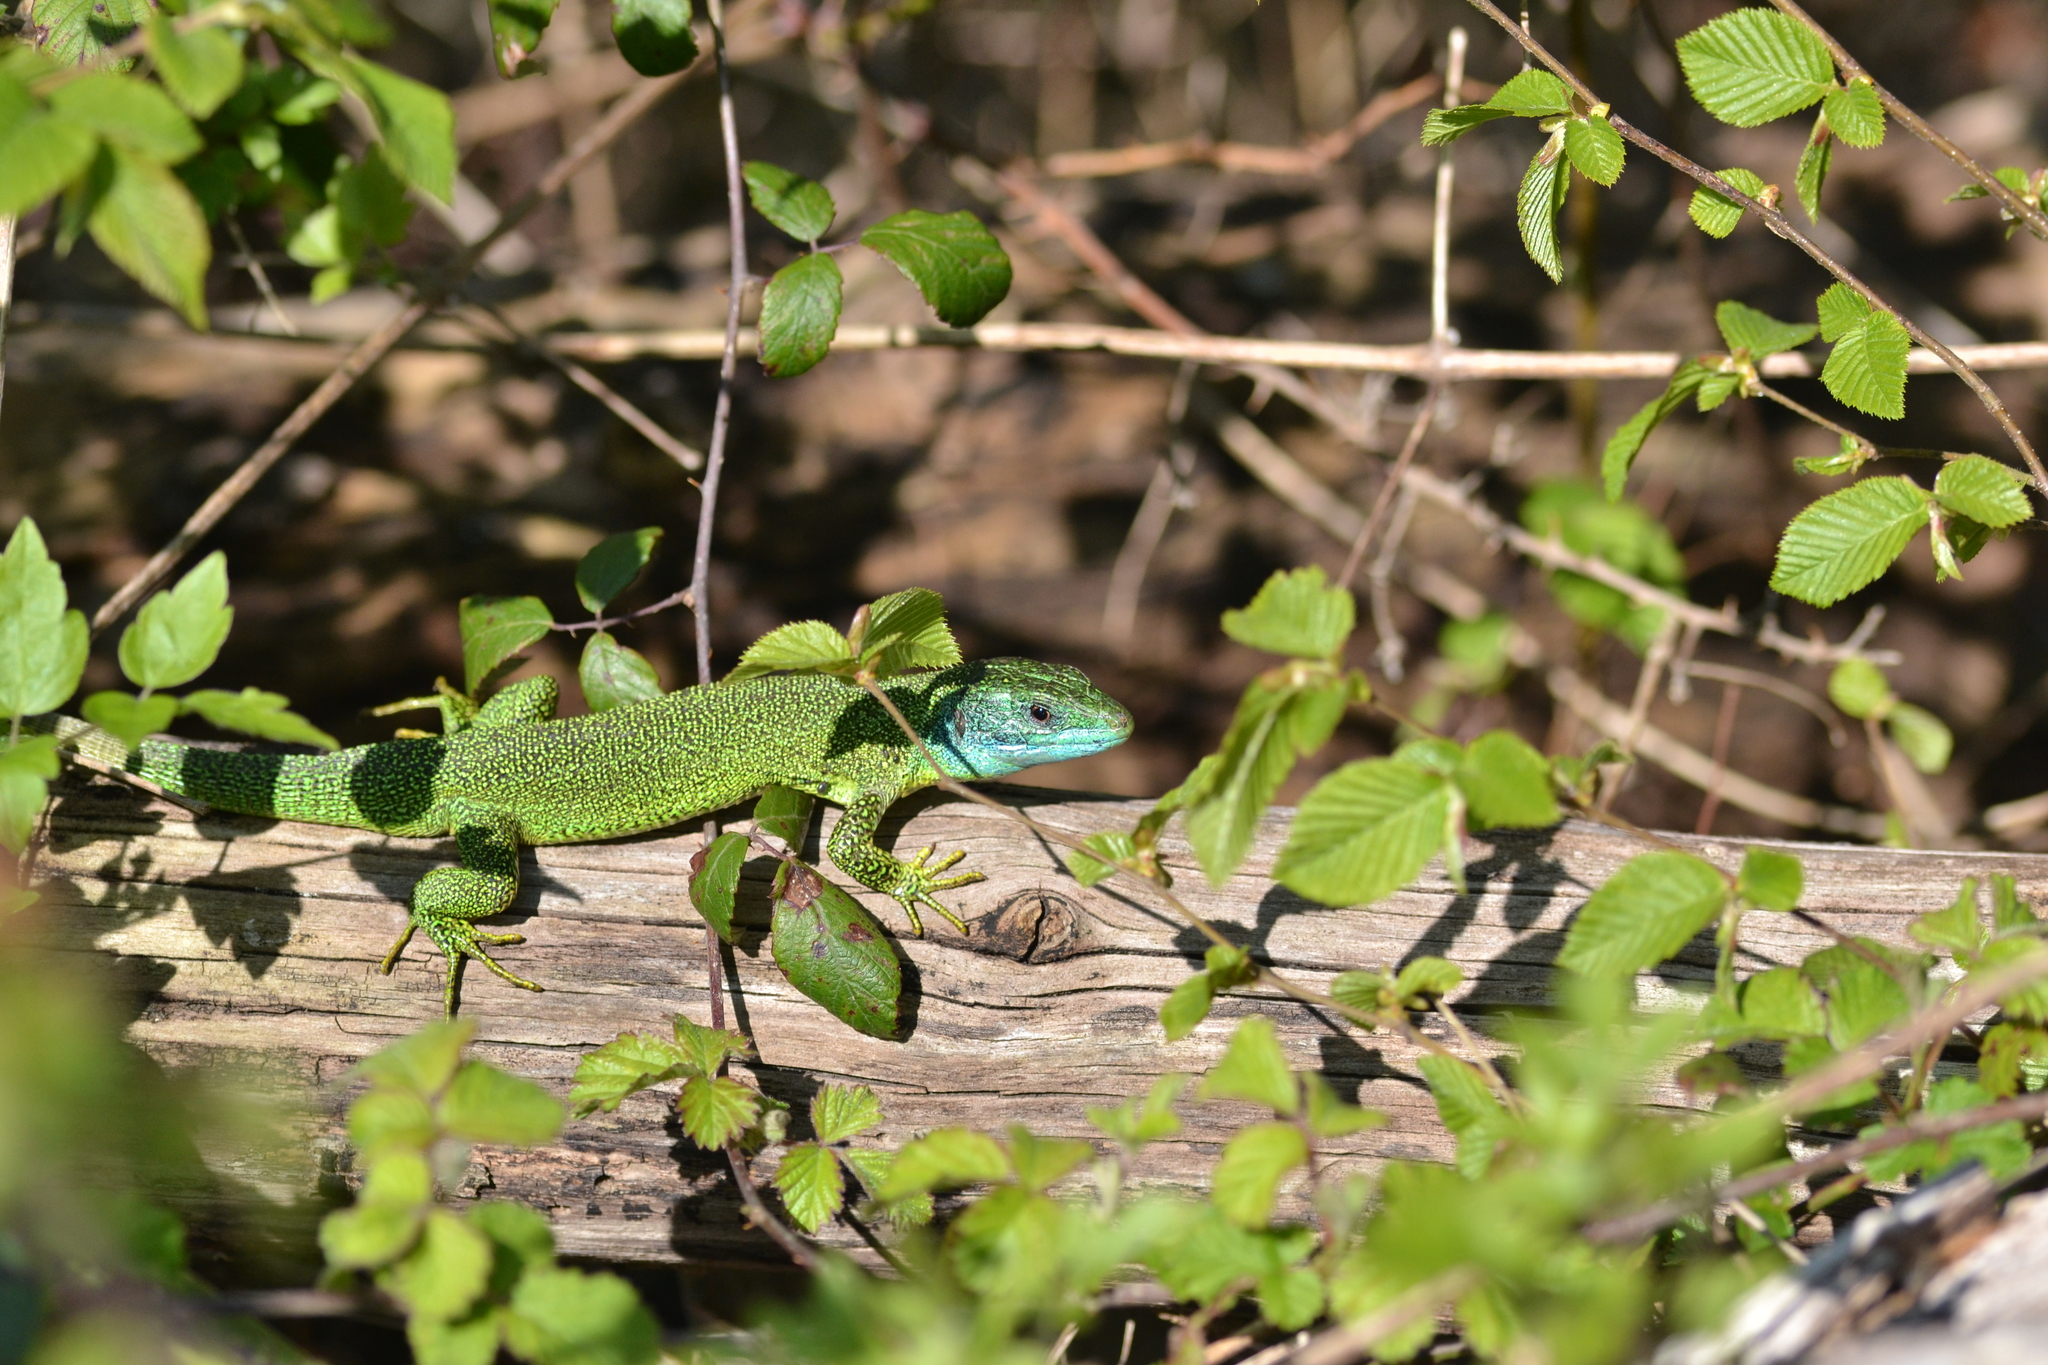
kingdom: Animalia
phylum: Chordata
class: Squamata
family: Lacertidae
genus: Lacerta
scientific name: Lacerta bilineata
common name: Western green lizard
